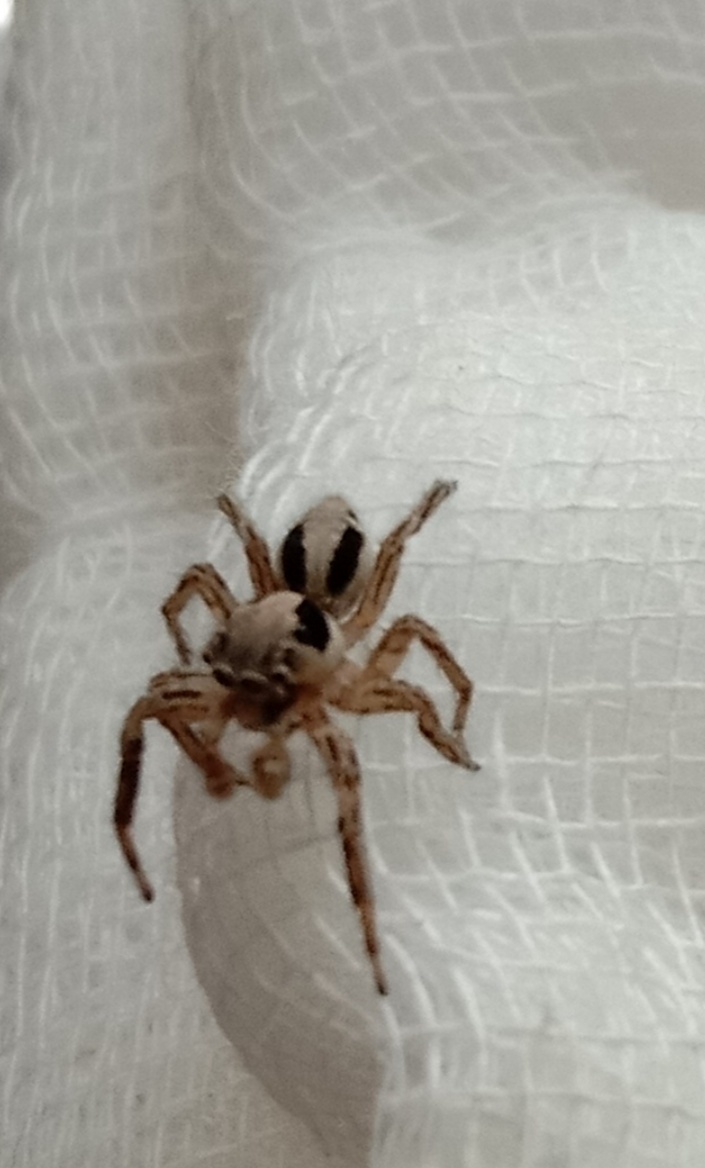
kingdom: Animalia
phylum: Arthropoda
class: Arachnida
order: Araneae
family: Salticidae
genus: Plexippus
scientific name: Plexippus petersi
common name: Jumping spider
